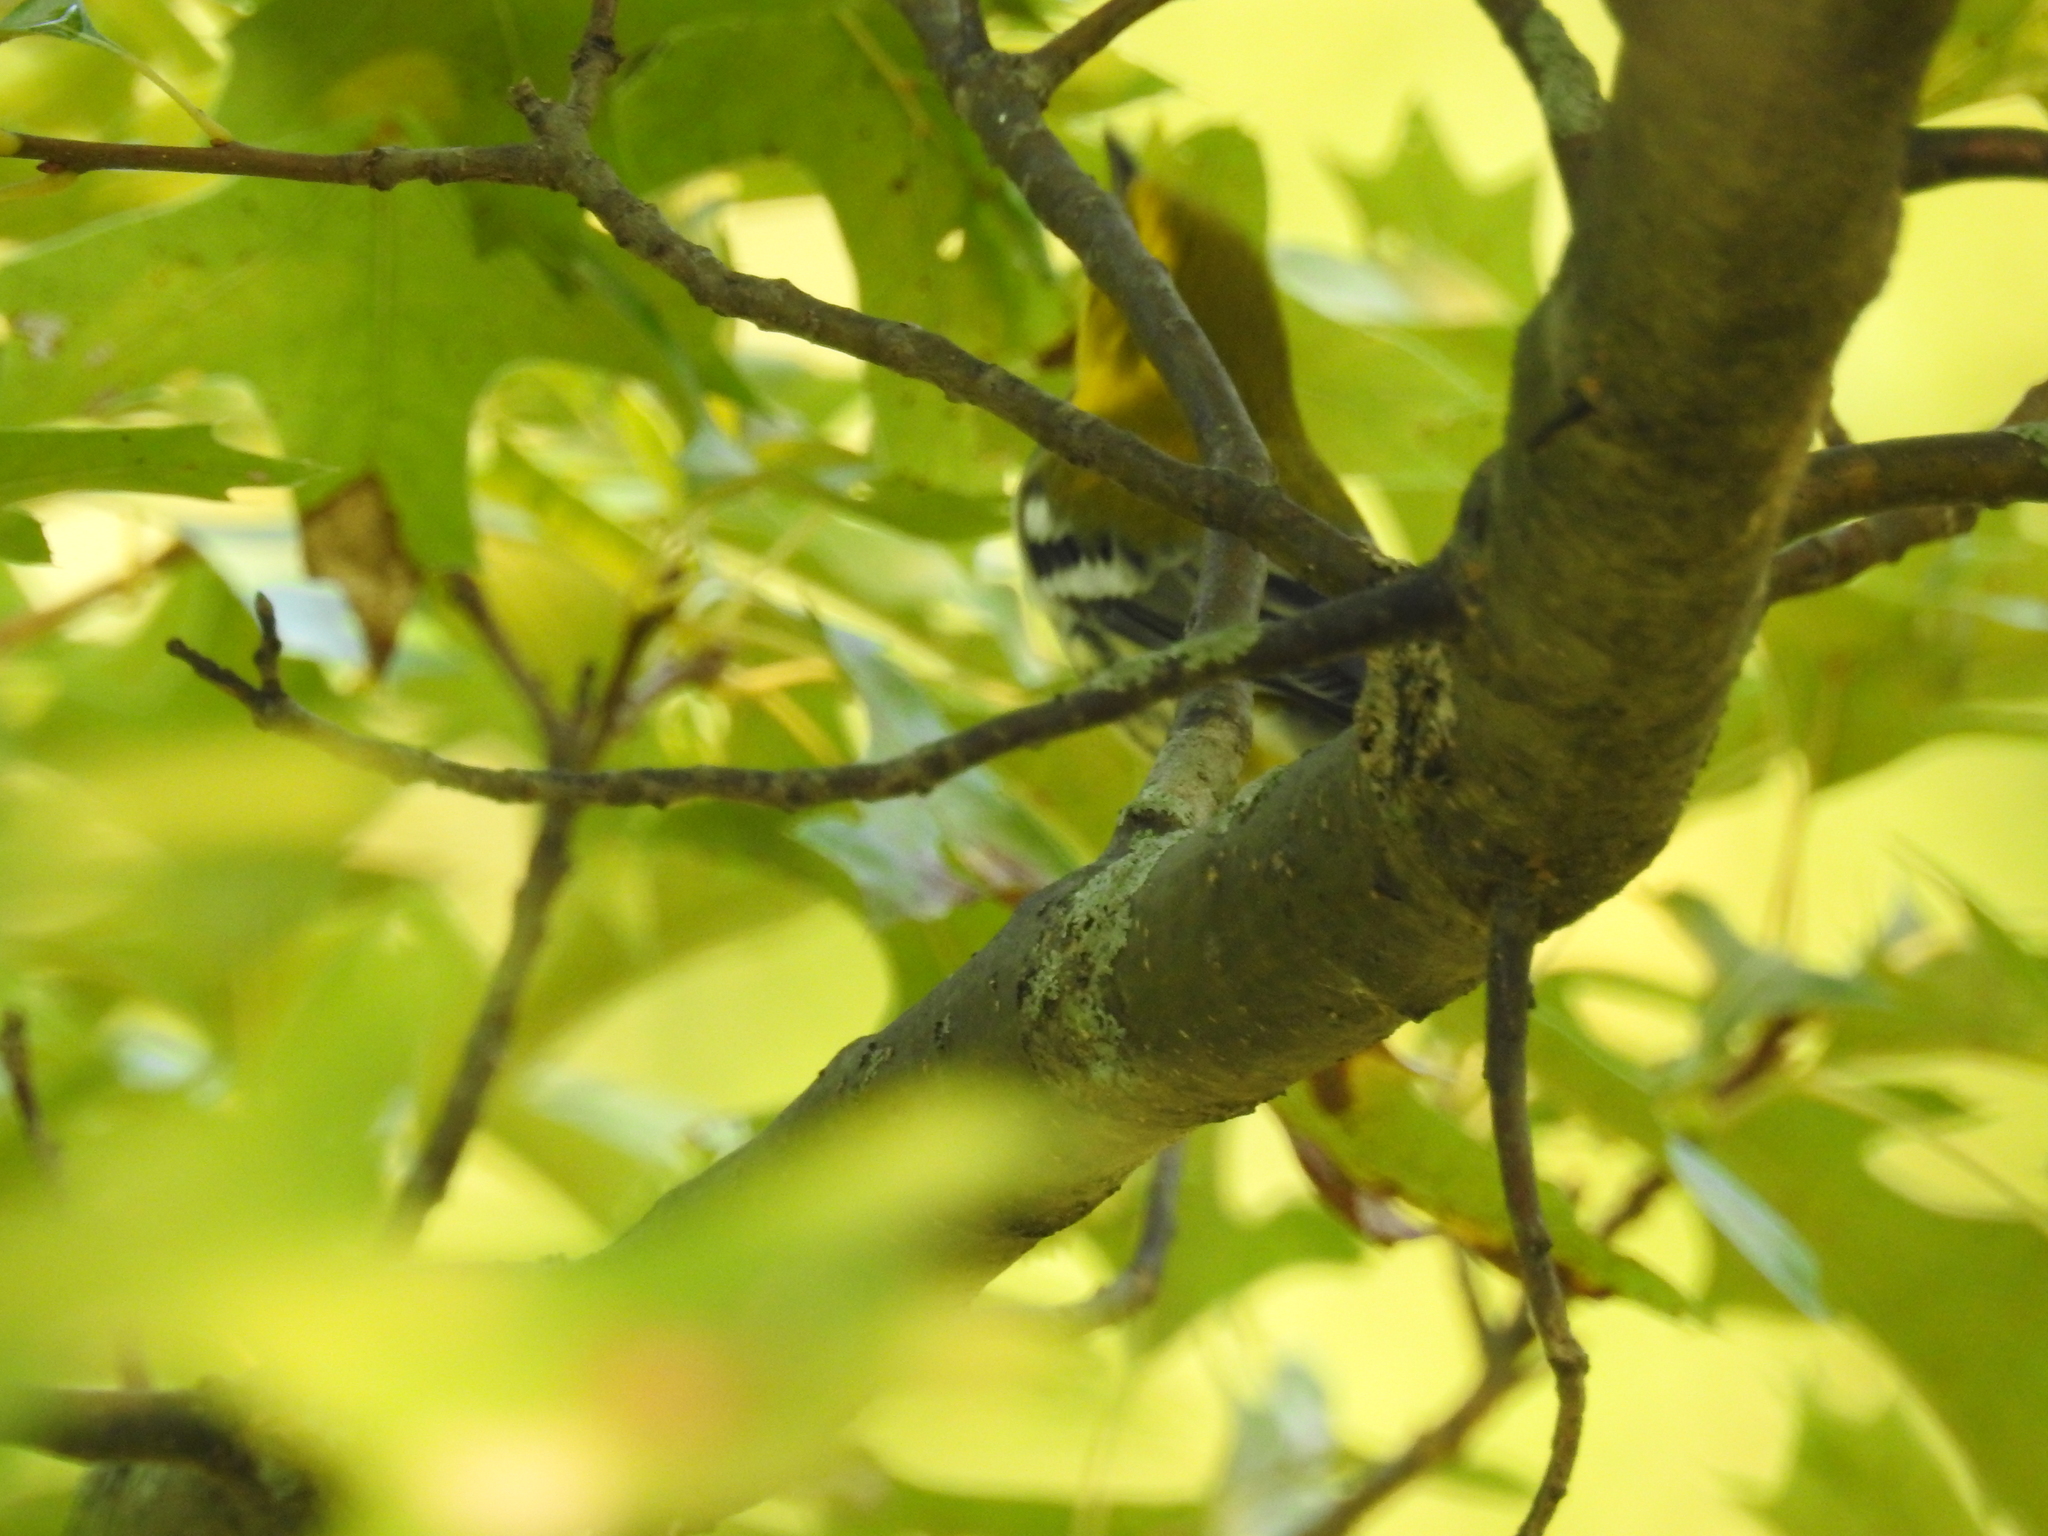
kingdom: Animalia
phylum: Chordata
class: Aves
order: Passeriformes
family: Parulidae
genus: Setophaga
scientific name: Setophaga virens
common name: Black-throated green warbler
